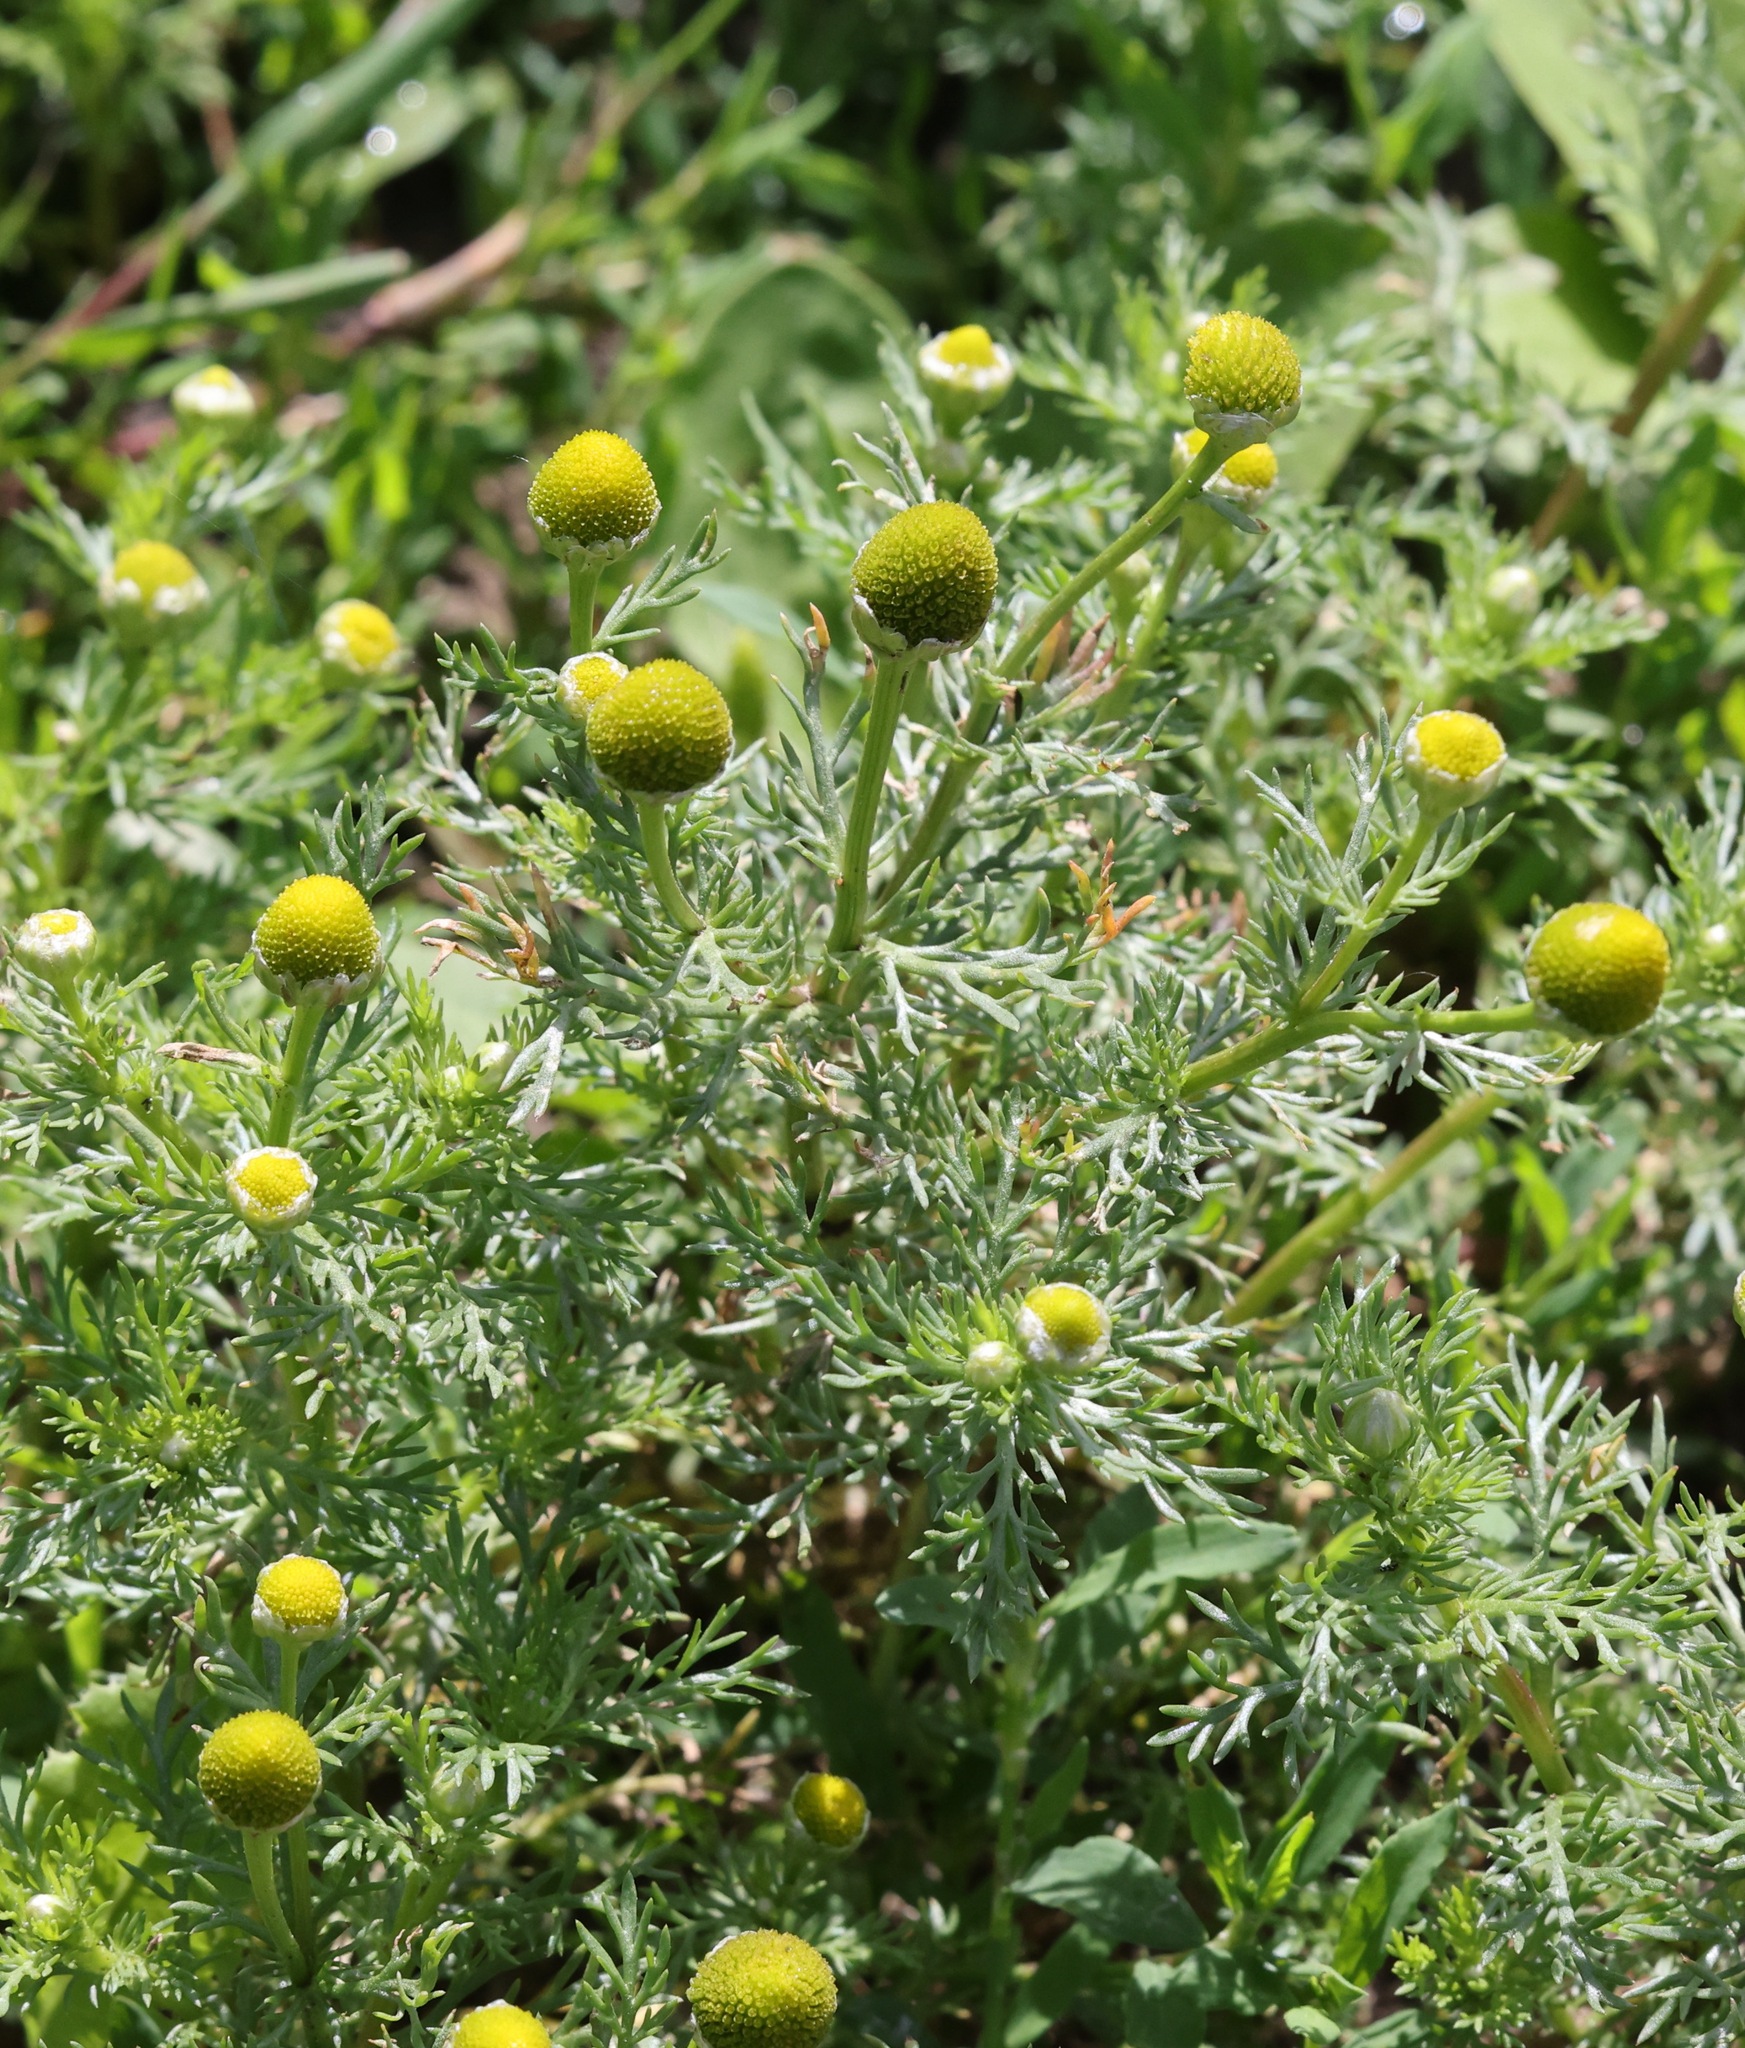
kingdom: Plantae
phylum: Tracheophyta
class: Magnoliopsida
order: Asterales
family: Asteraceae
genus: Matricaria
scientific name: Matricaria discoidea
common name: Disc mayweed
